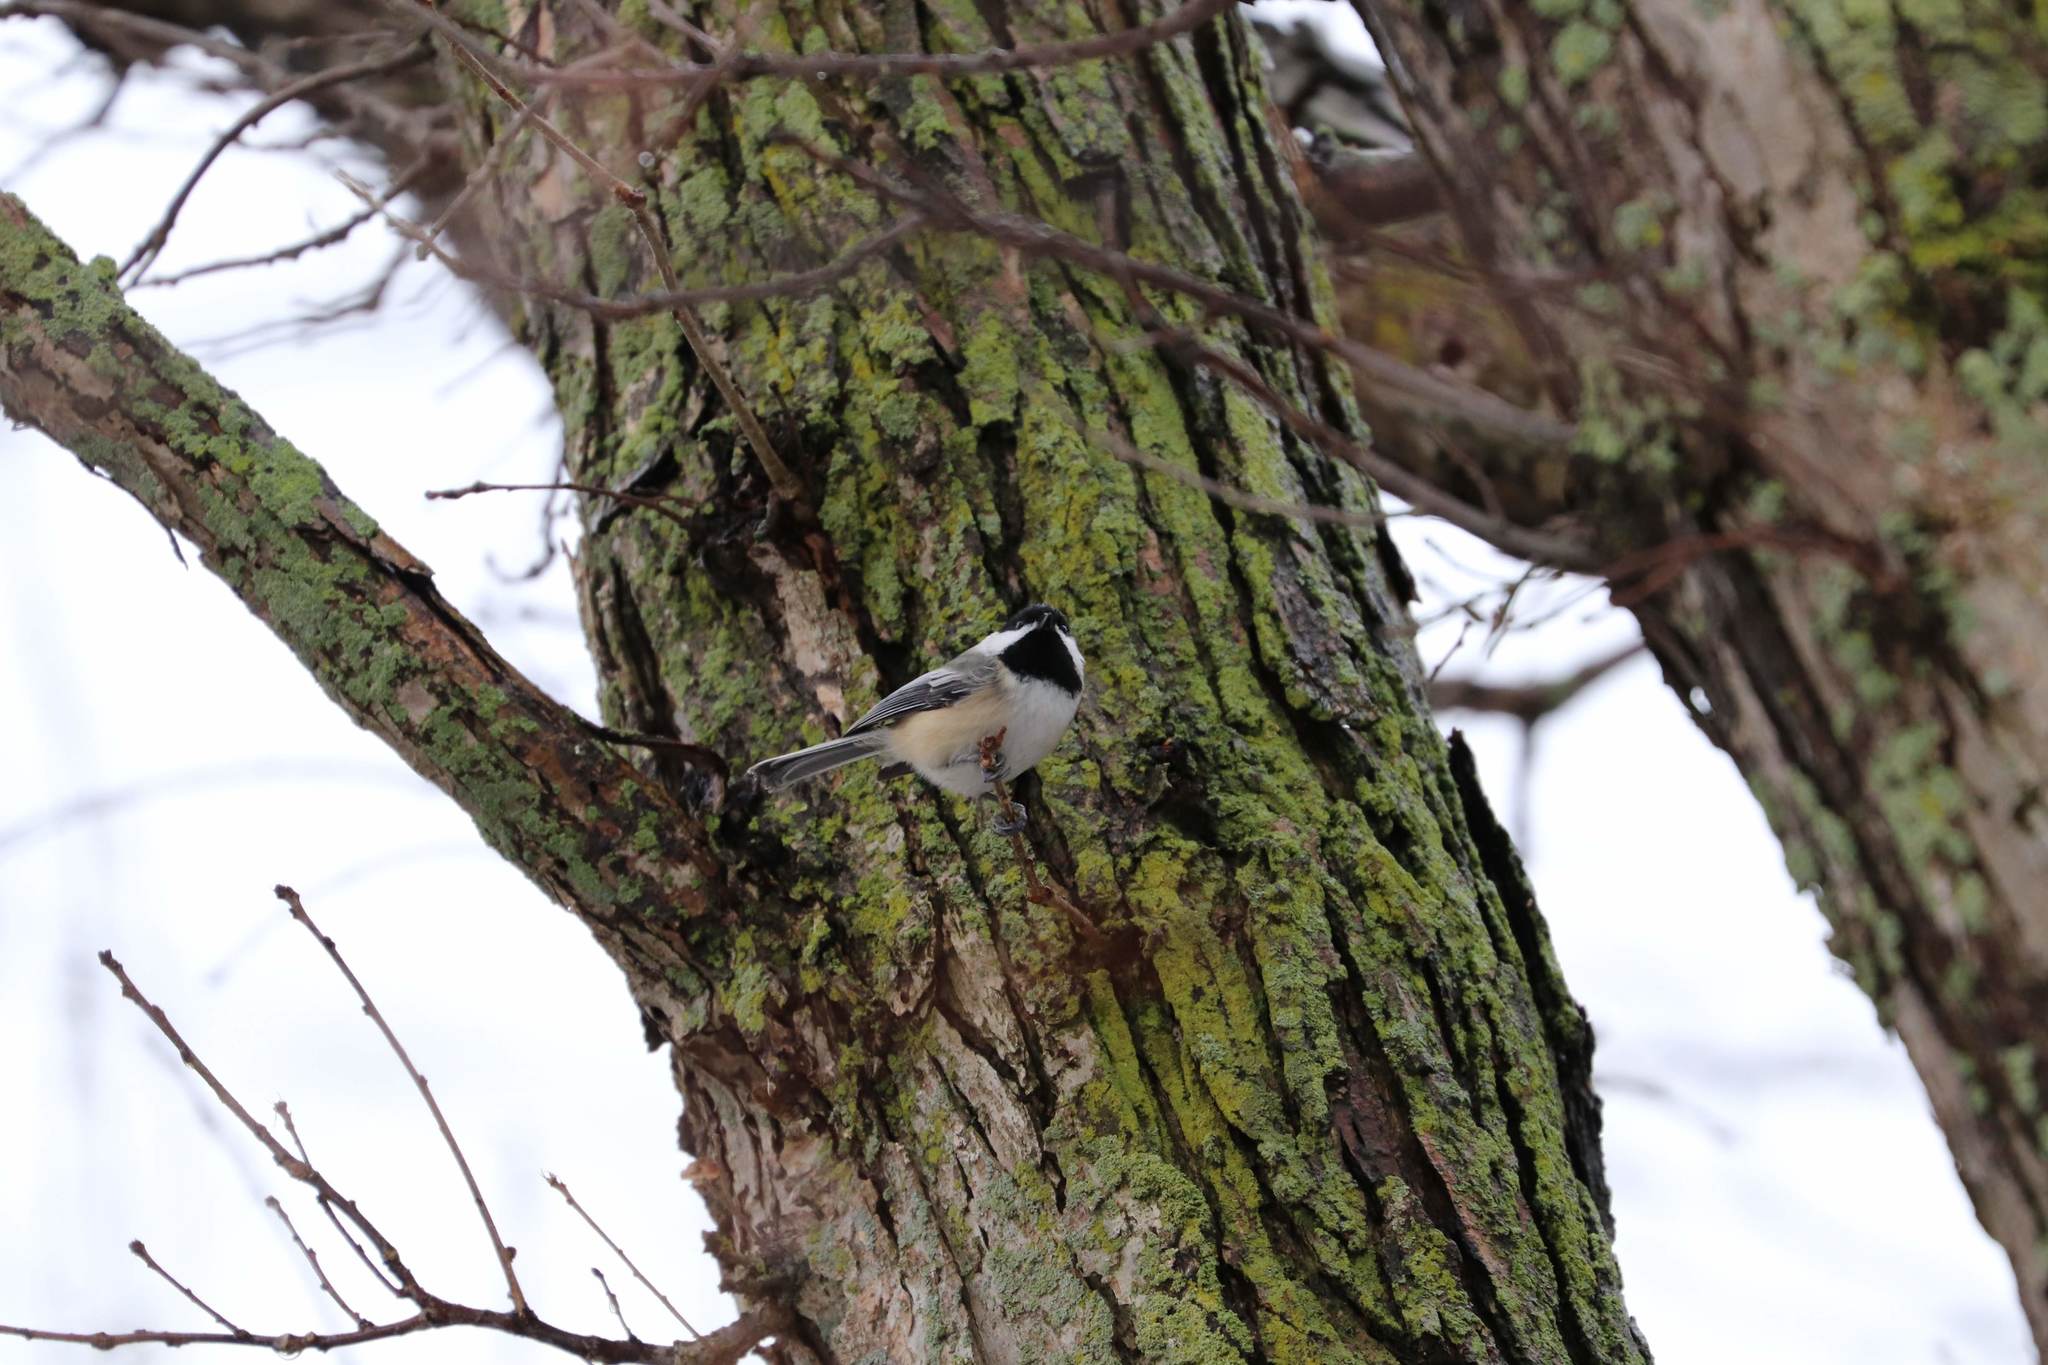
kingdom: Animalia
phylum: Chordata
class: Aves
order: Passeriformes
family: Paridae
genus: Poecile
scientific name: Poecile atricapillus
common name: Black-capped chickadee
